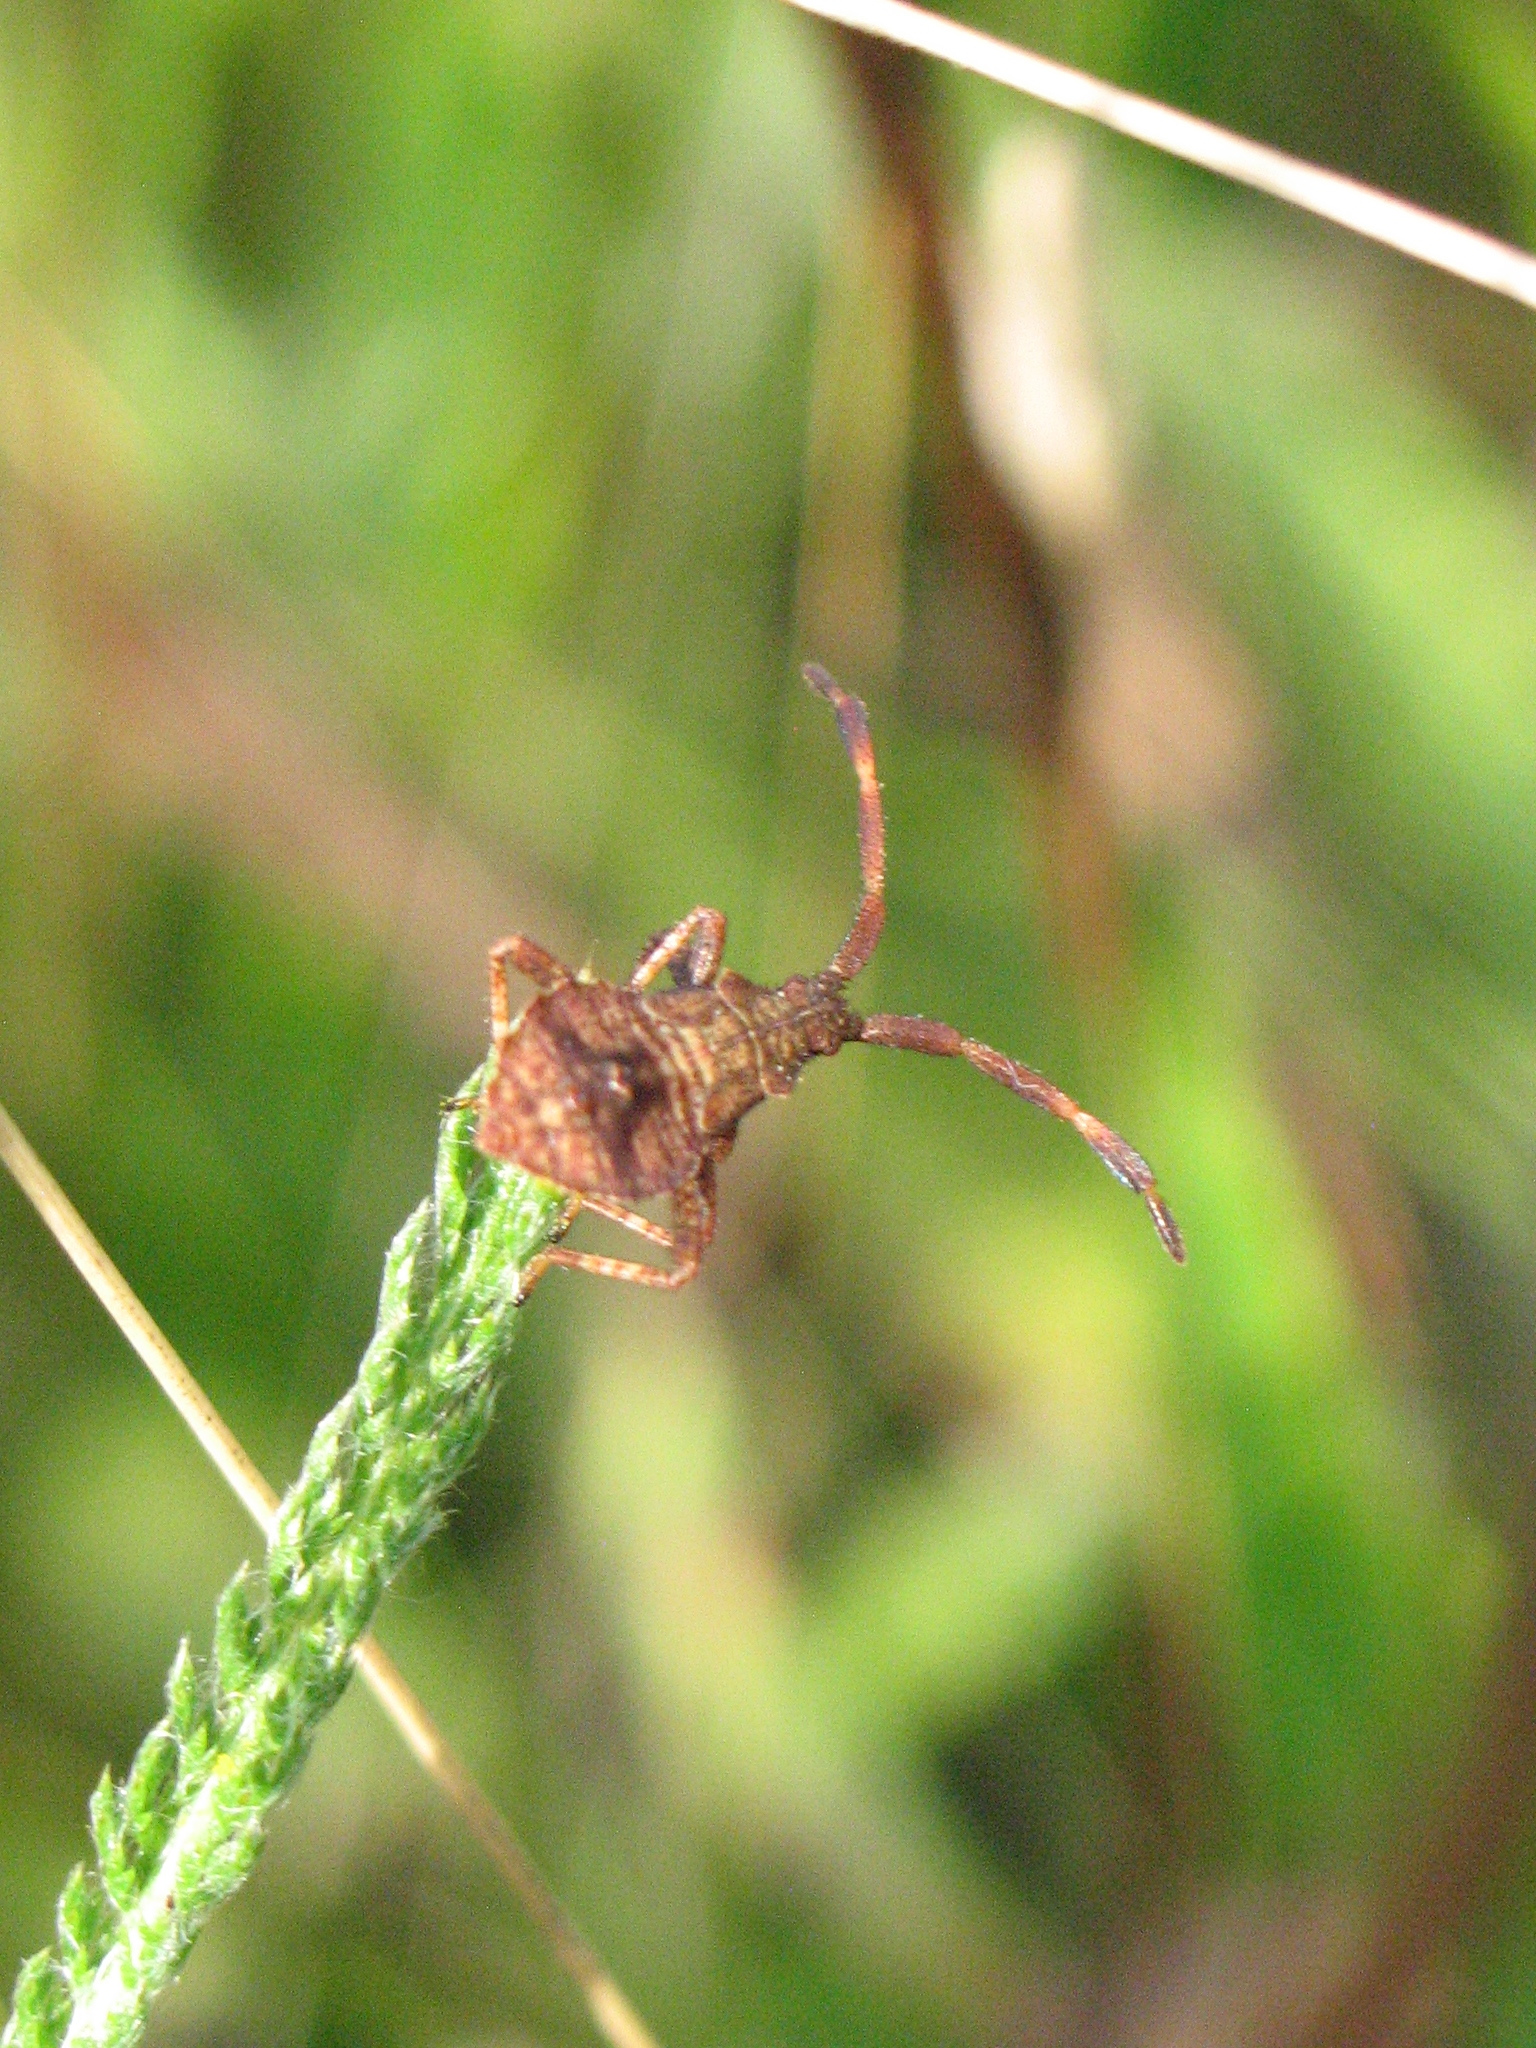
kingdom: Animalia
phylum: Arthropoda
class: Insecta
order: Hemiptera
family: Coreidae
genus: Coreus
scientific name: Coreus marginatus
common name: Dock bug
